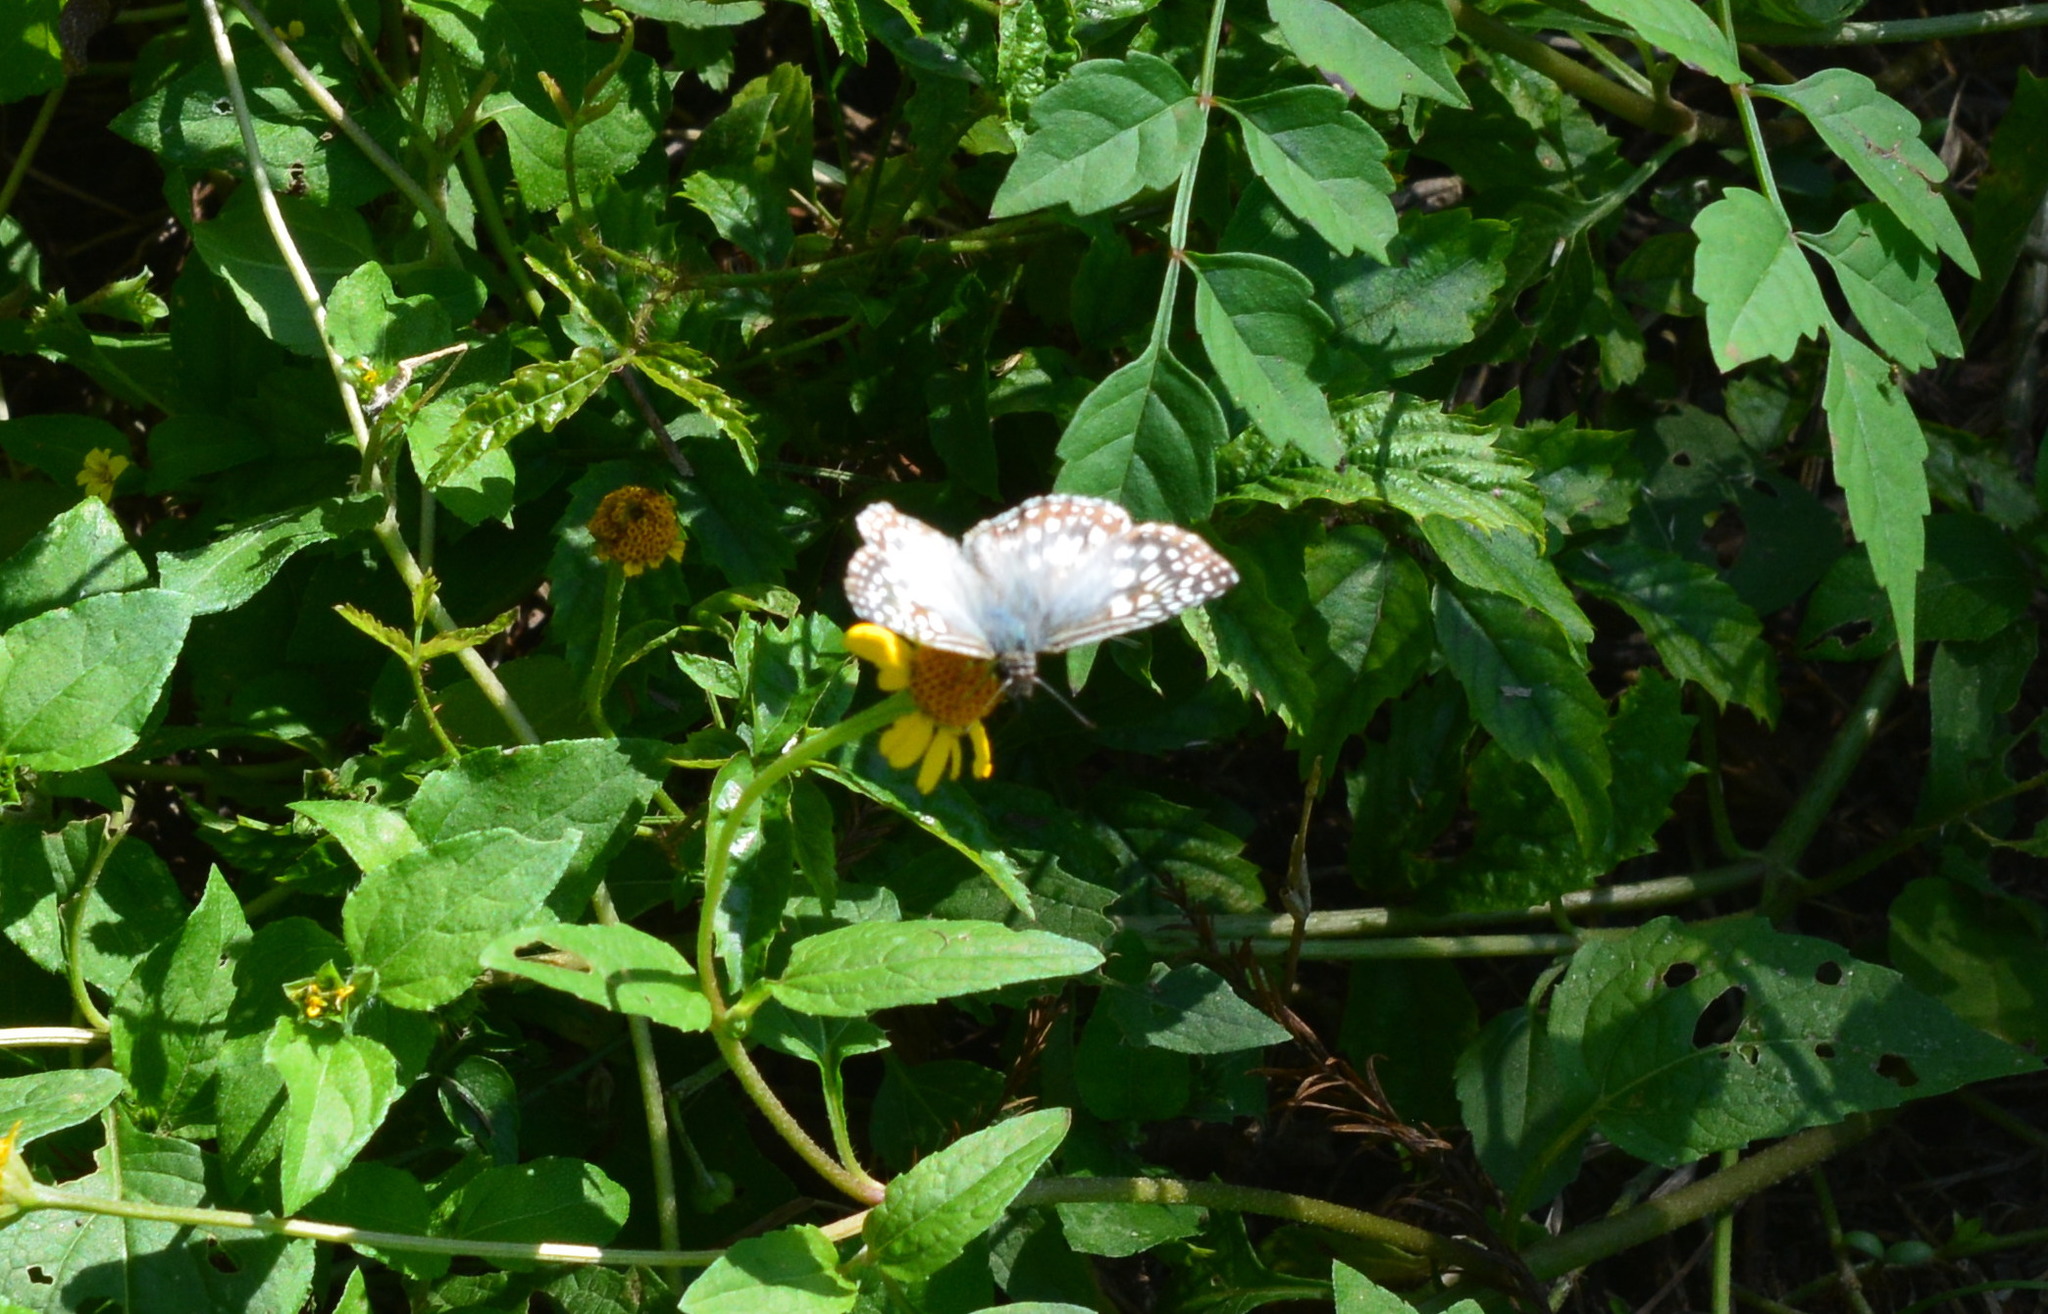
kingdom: Animalia
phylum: Arthropoda
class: Insecta
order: Lepidoptera
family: Hesperiidae
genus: Pyrgus
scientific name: Pyrgus oileus
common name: Tropical checkered-skipper
